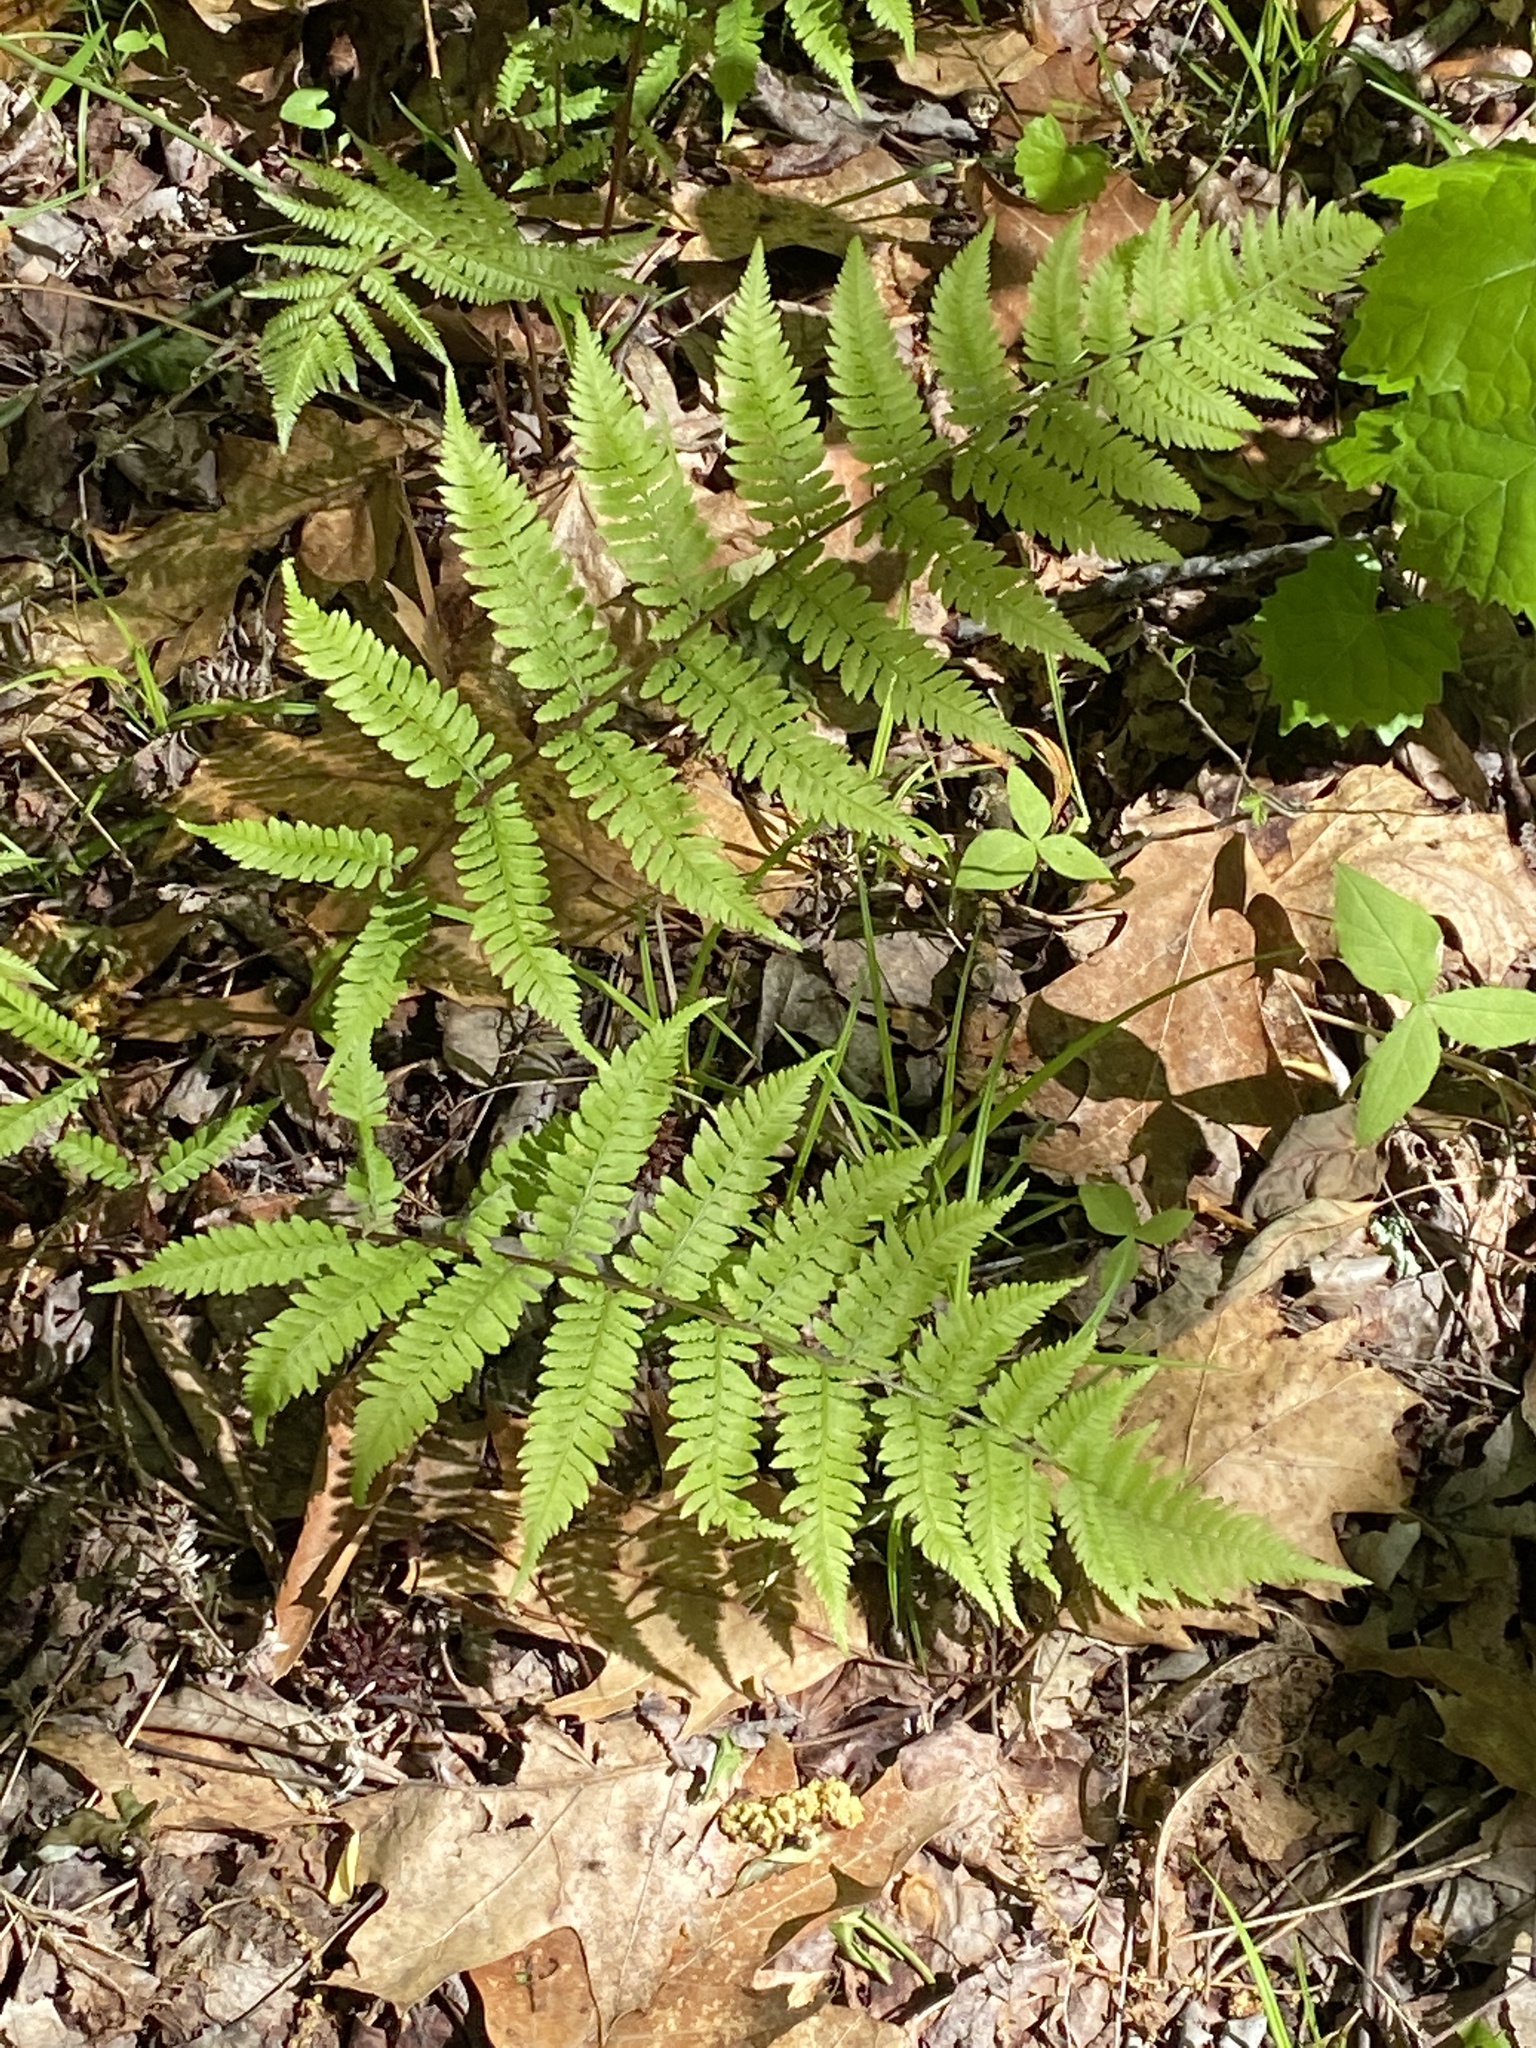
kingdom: Plantae
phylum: Tracheophyta
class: Polypodiopsida
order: Polypodiales
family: Athyriaceae
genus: Athyrium
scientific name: Athyrium asplenioides
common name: Southern lady fern
